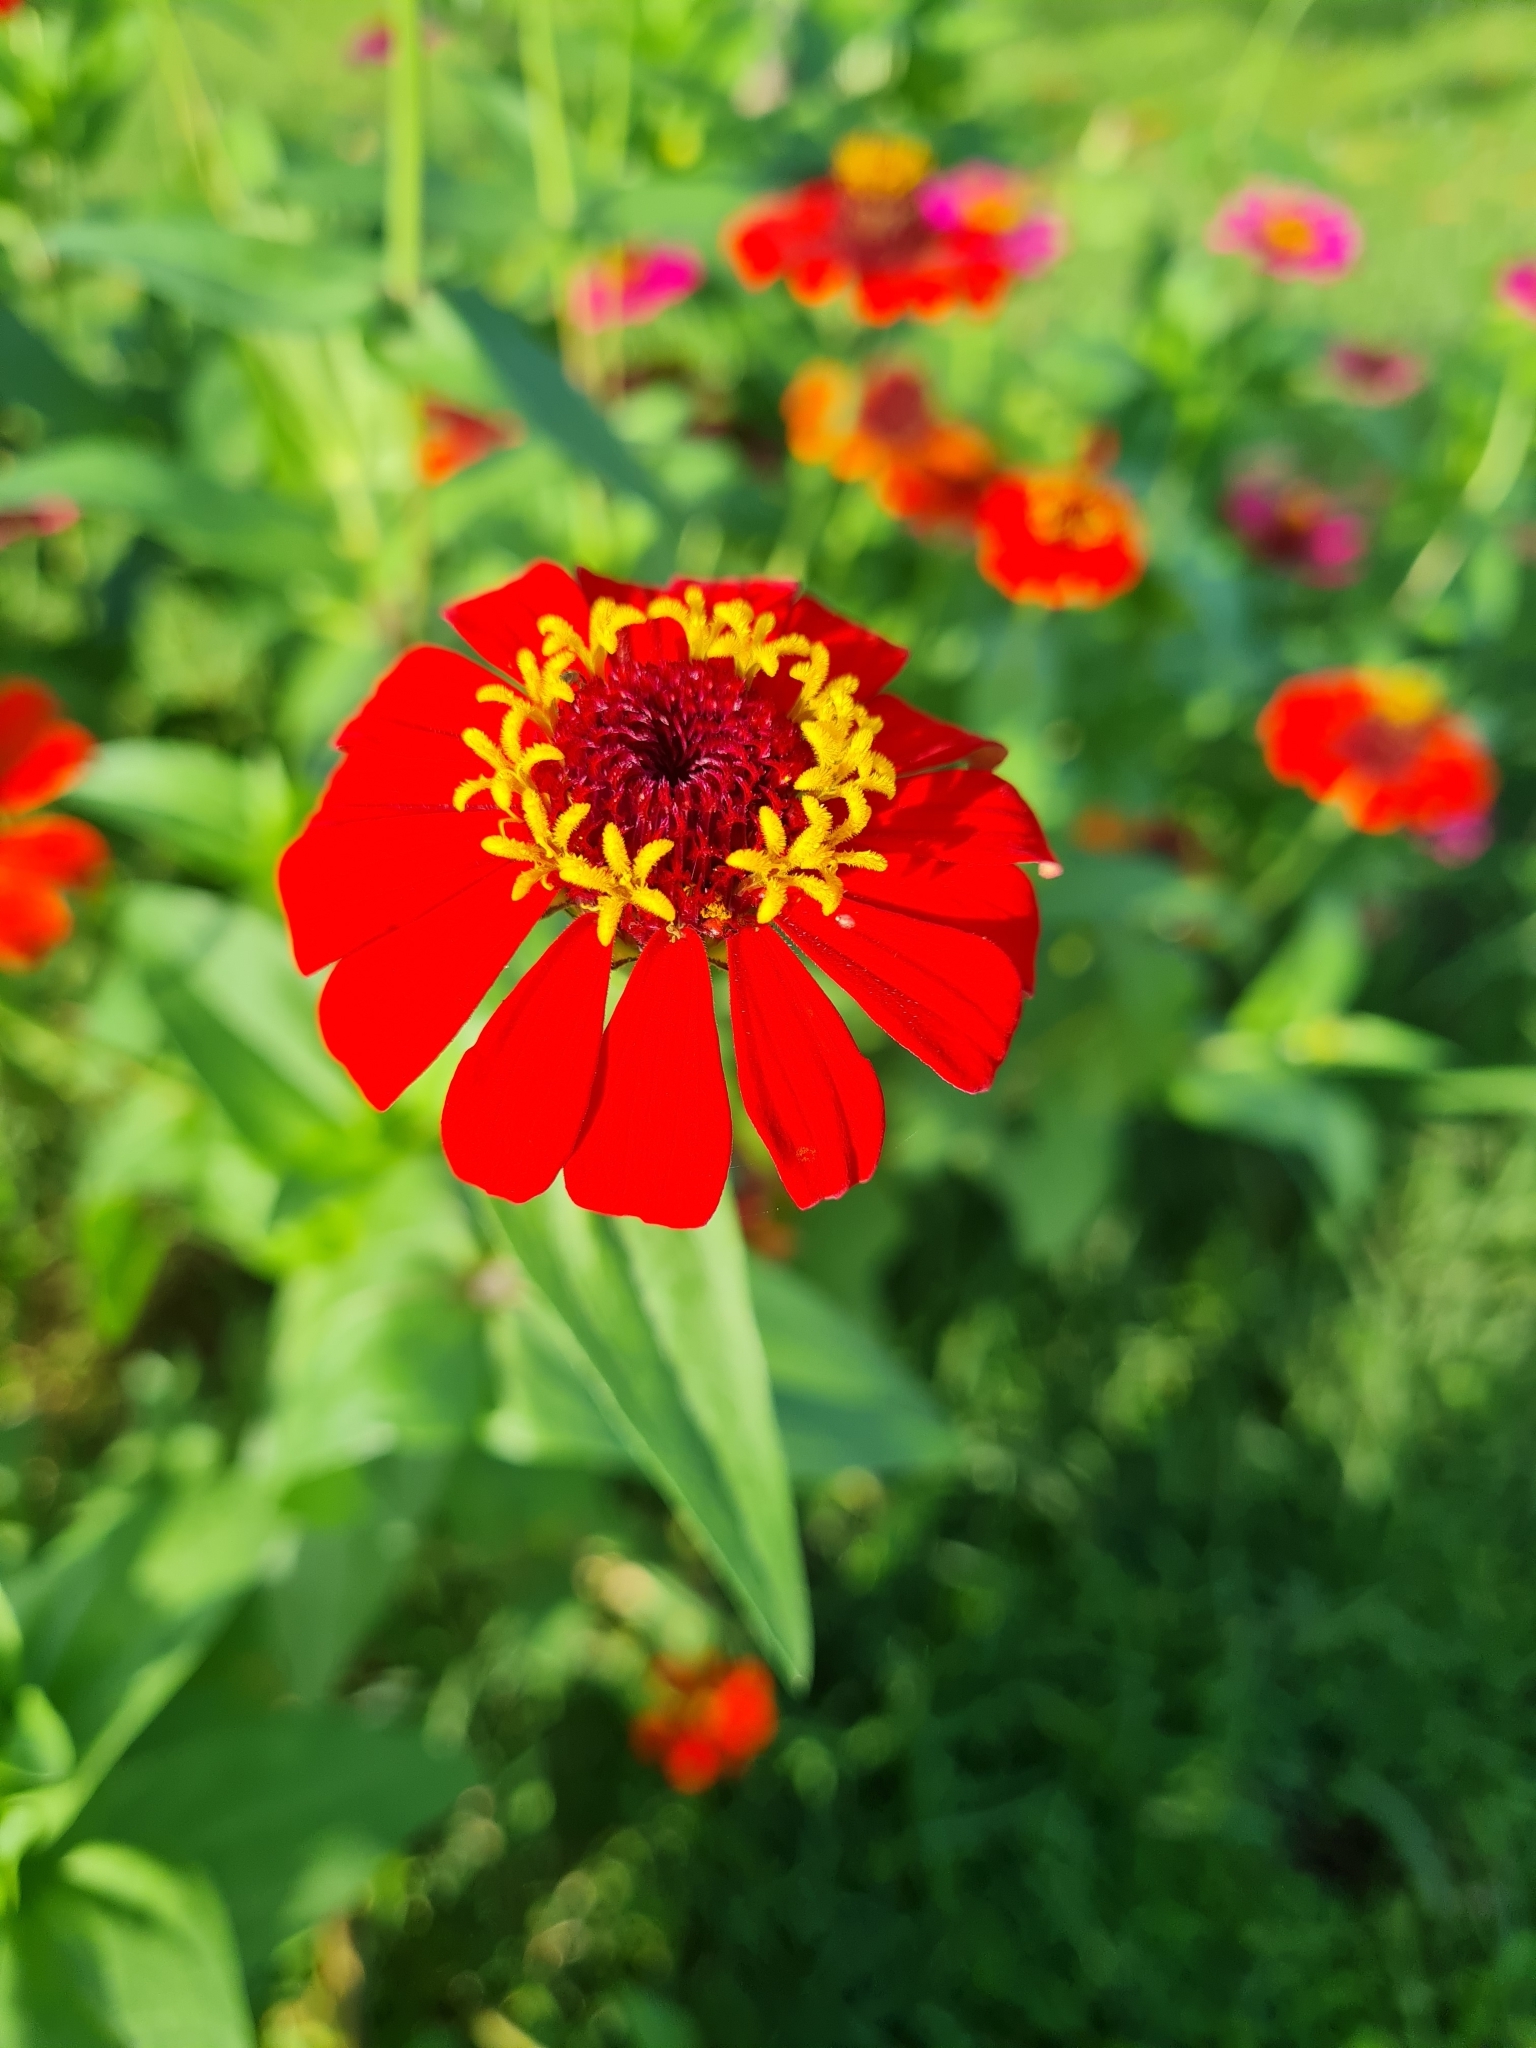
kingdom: Plantae
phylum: Tracheophyta
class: Magnoliopsida
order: Asterales
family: Asteraceae
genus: Zinnia
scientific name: Zinnia elegans
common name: Youth-and-age
